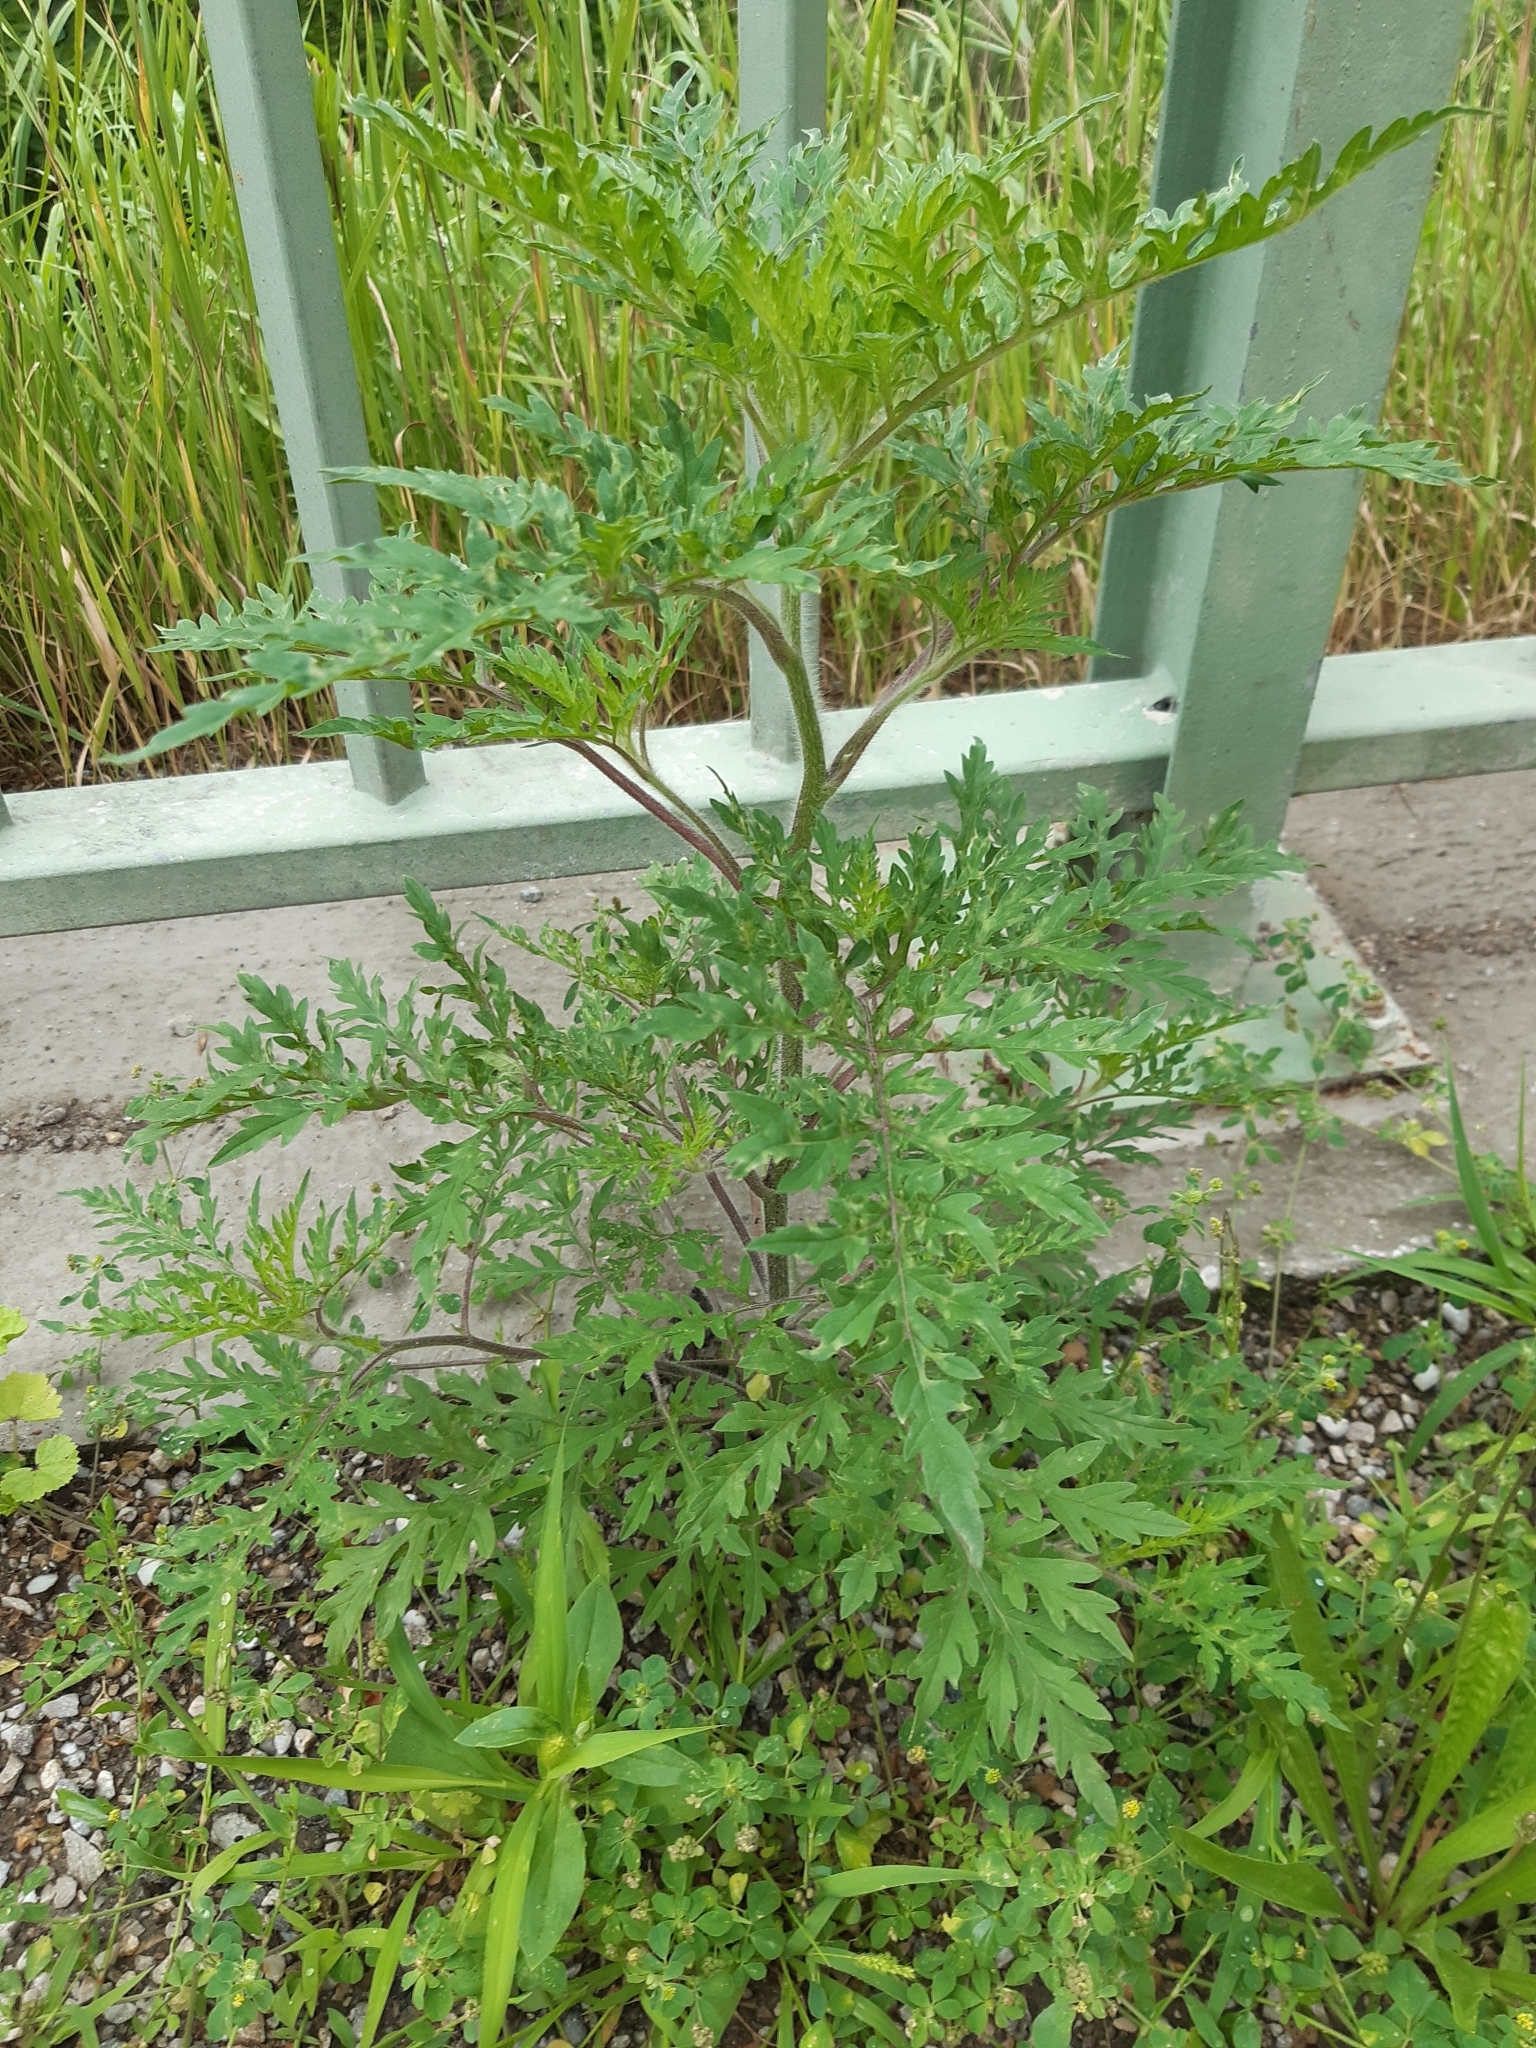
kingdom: Plantae
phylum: Tracheophyta
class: Magnoliopsida
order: Asterales
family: Asteraceae
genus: Ambrosia
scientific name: Ambrosia artemisiifolia
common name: Annual ragweed
